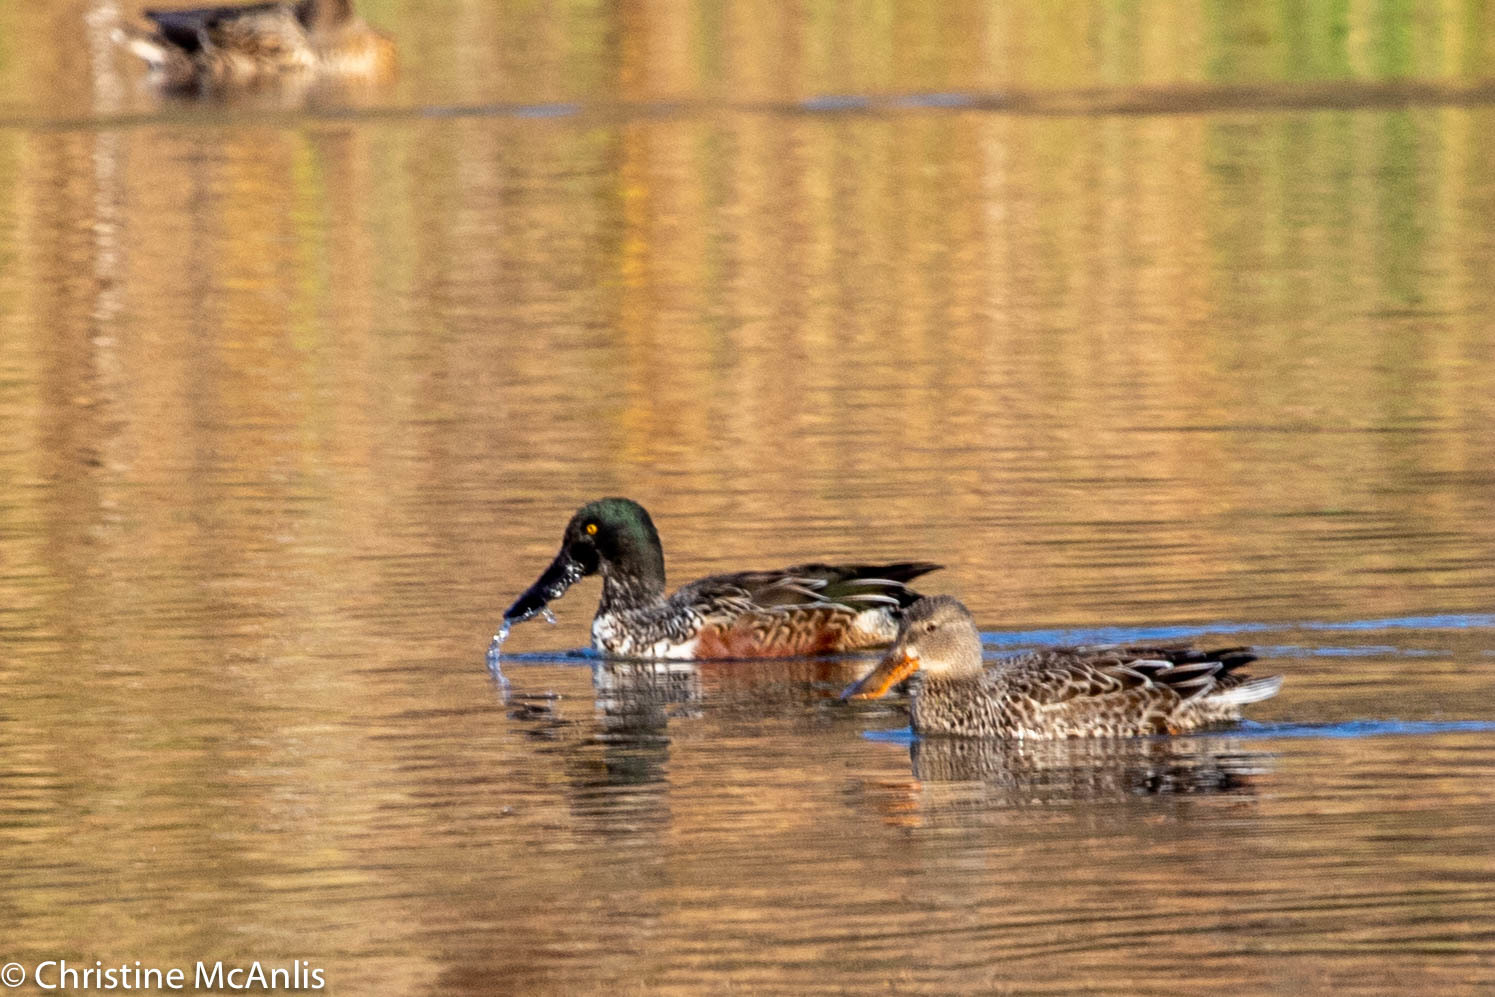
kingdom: Animalia
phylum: Chordata
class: Aves
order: Anseriformes
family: Anatidae
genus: Spatula
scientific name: Spatula clypeata
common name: Northern shoveler
